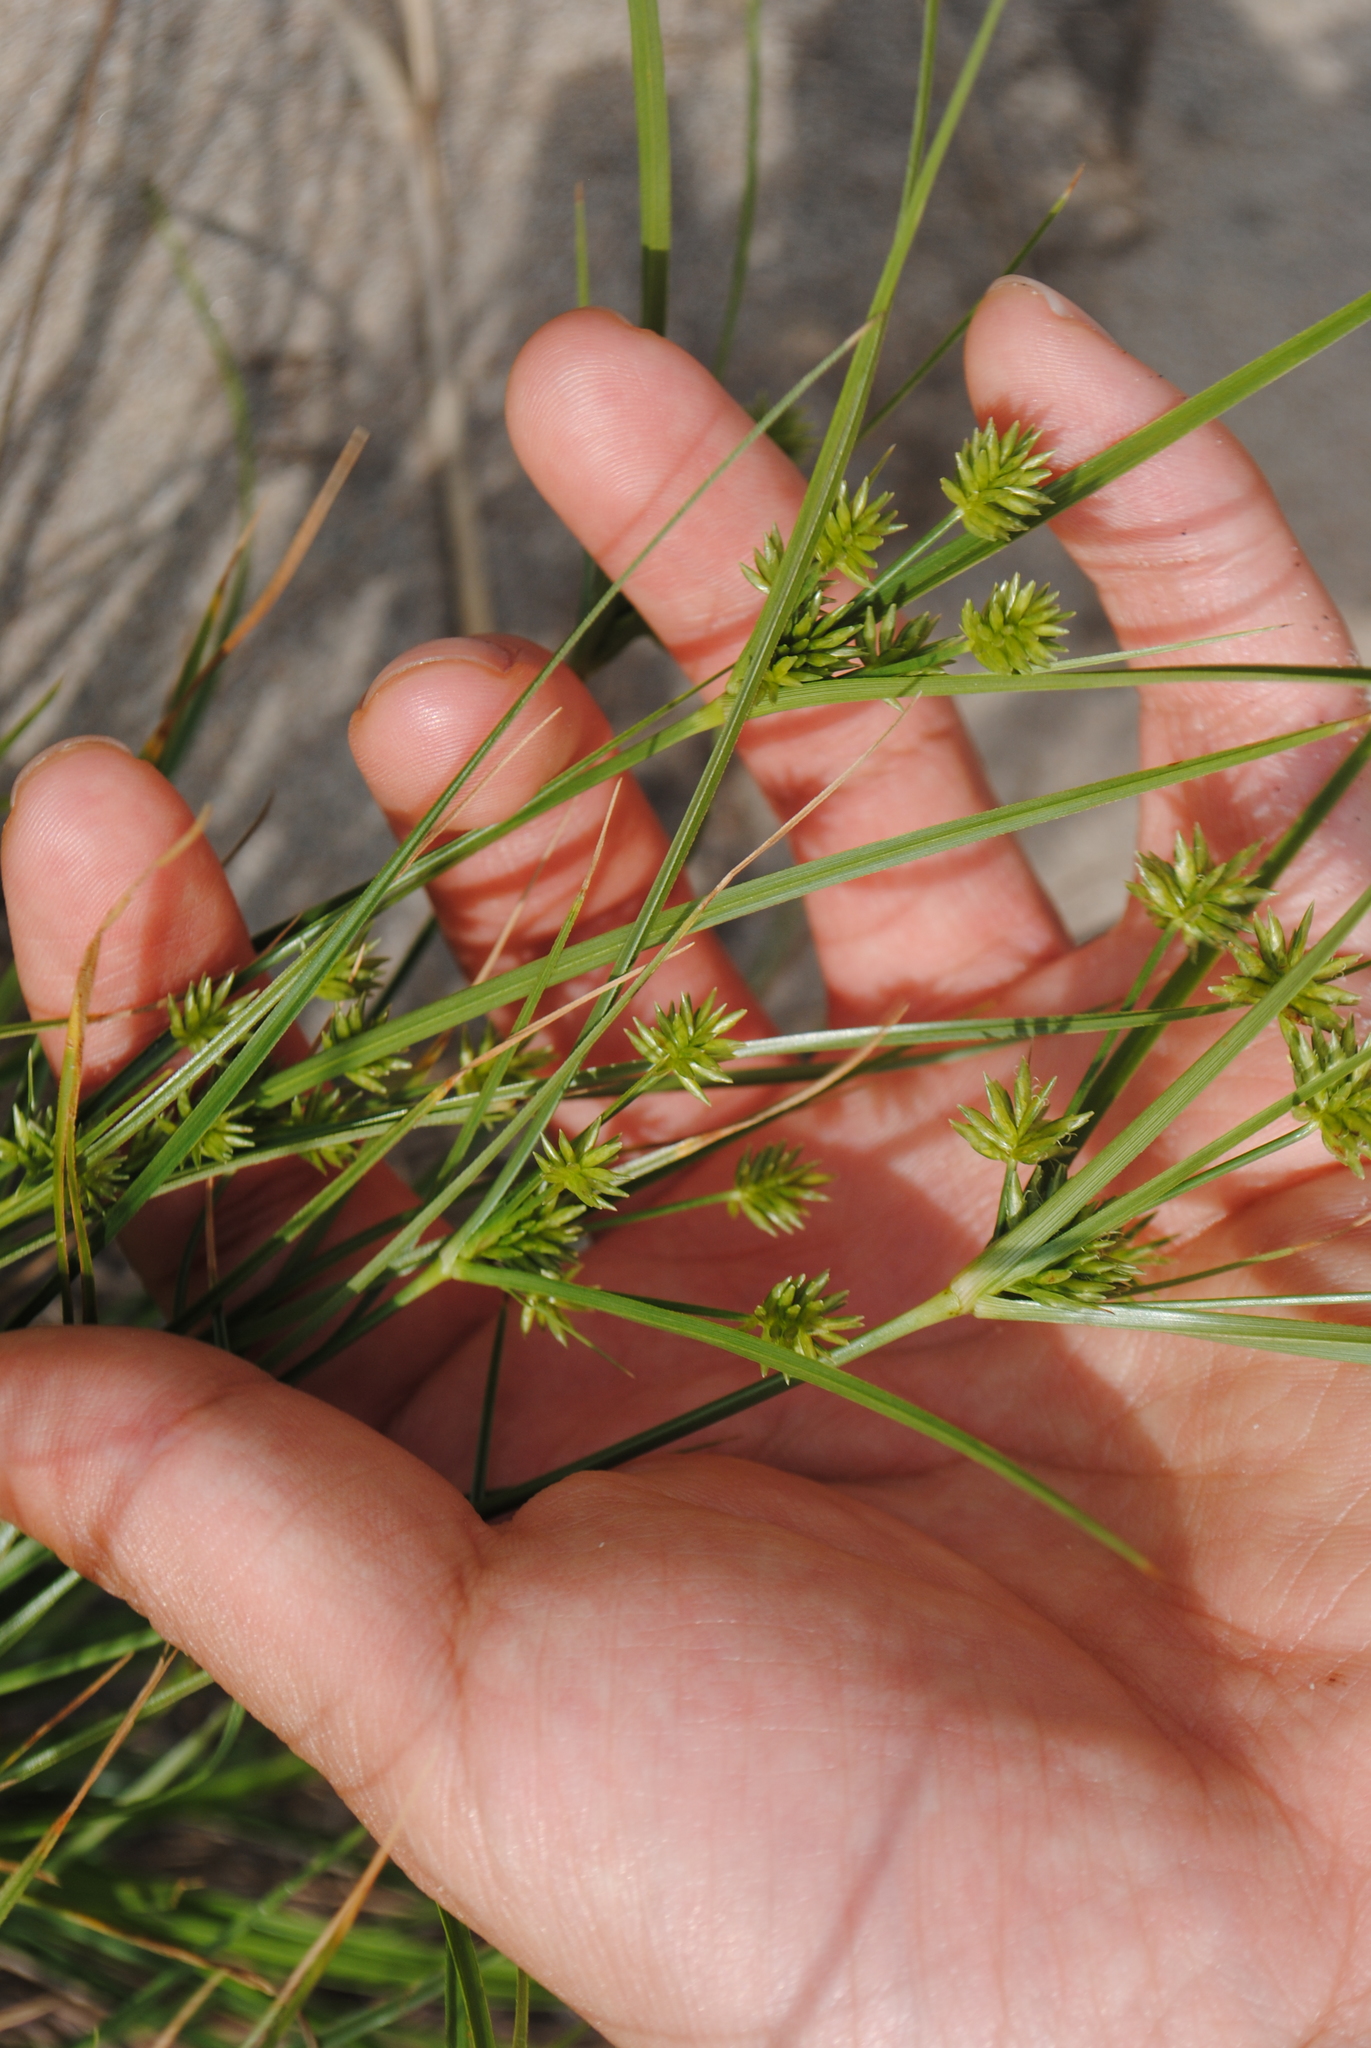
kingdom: Plantae
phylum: Tracheophyta
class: Liliopsida
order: Poales
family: Cyperaceae
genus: Cyperus
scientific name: Cyperus grayi
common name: Gray's flat sedge
